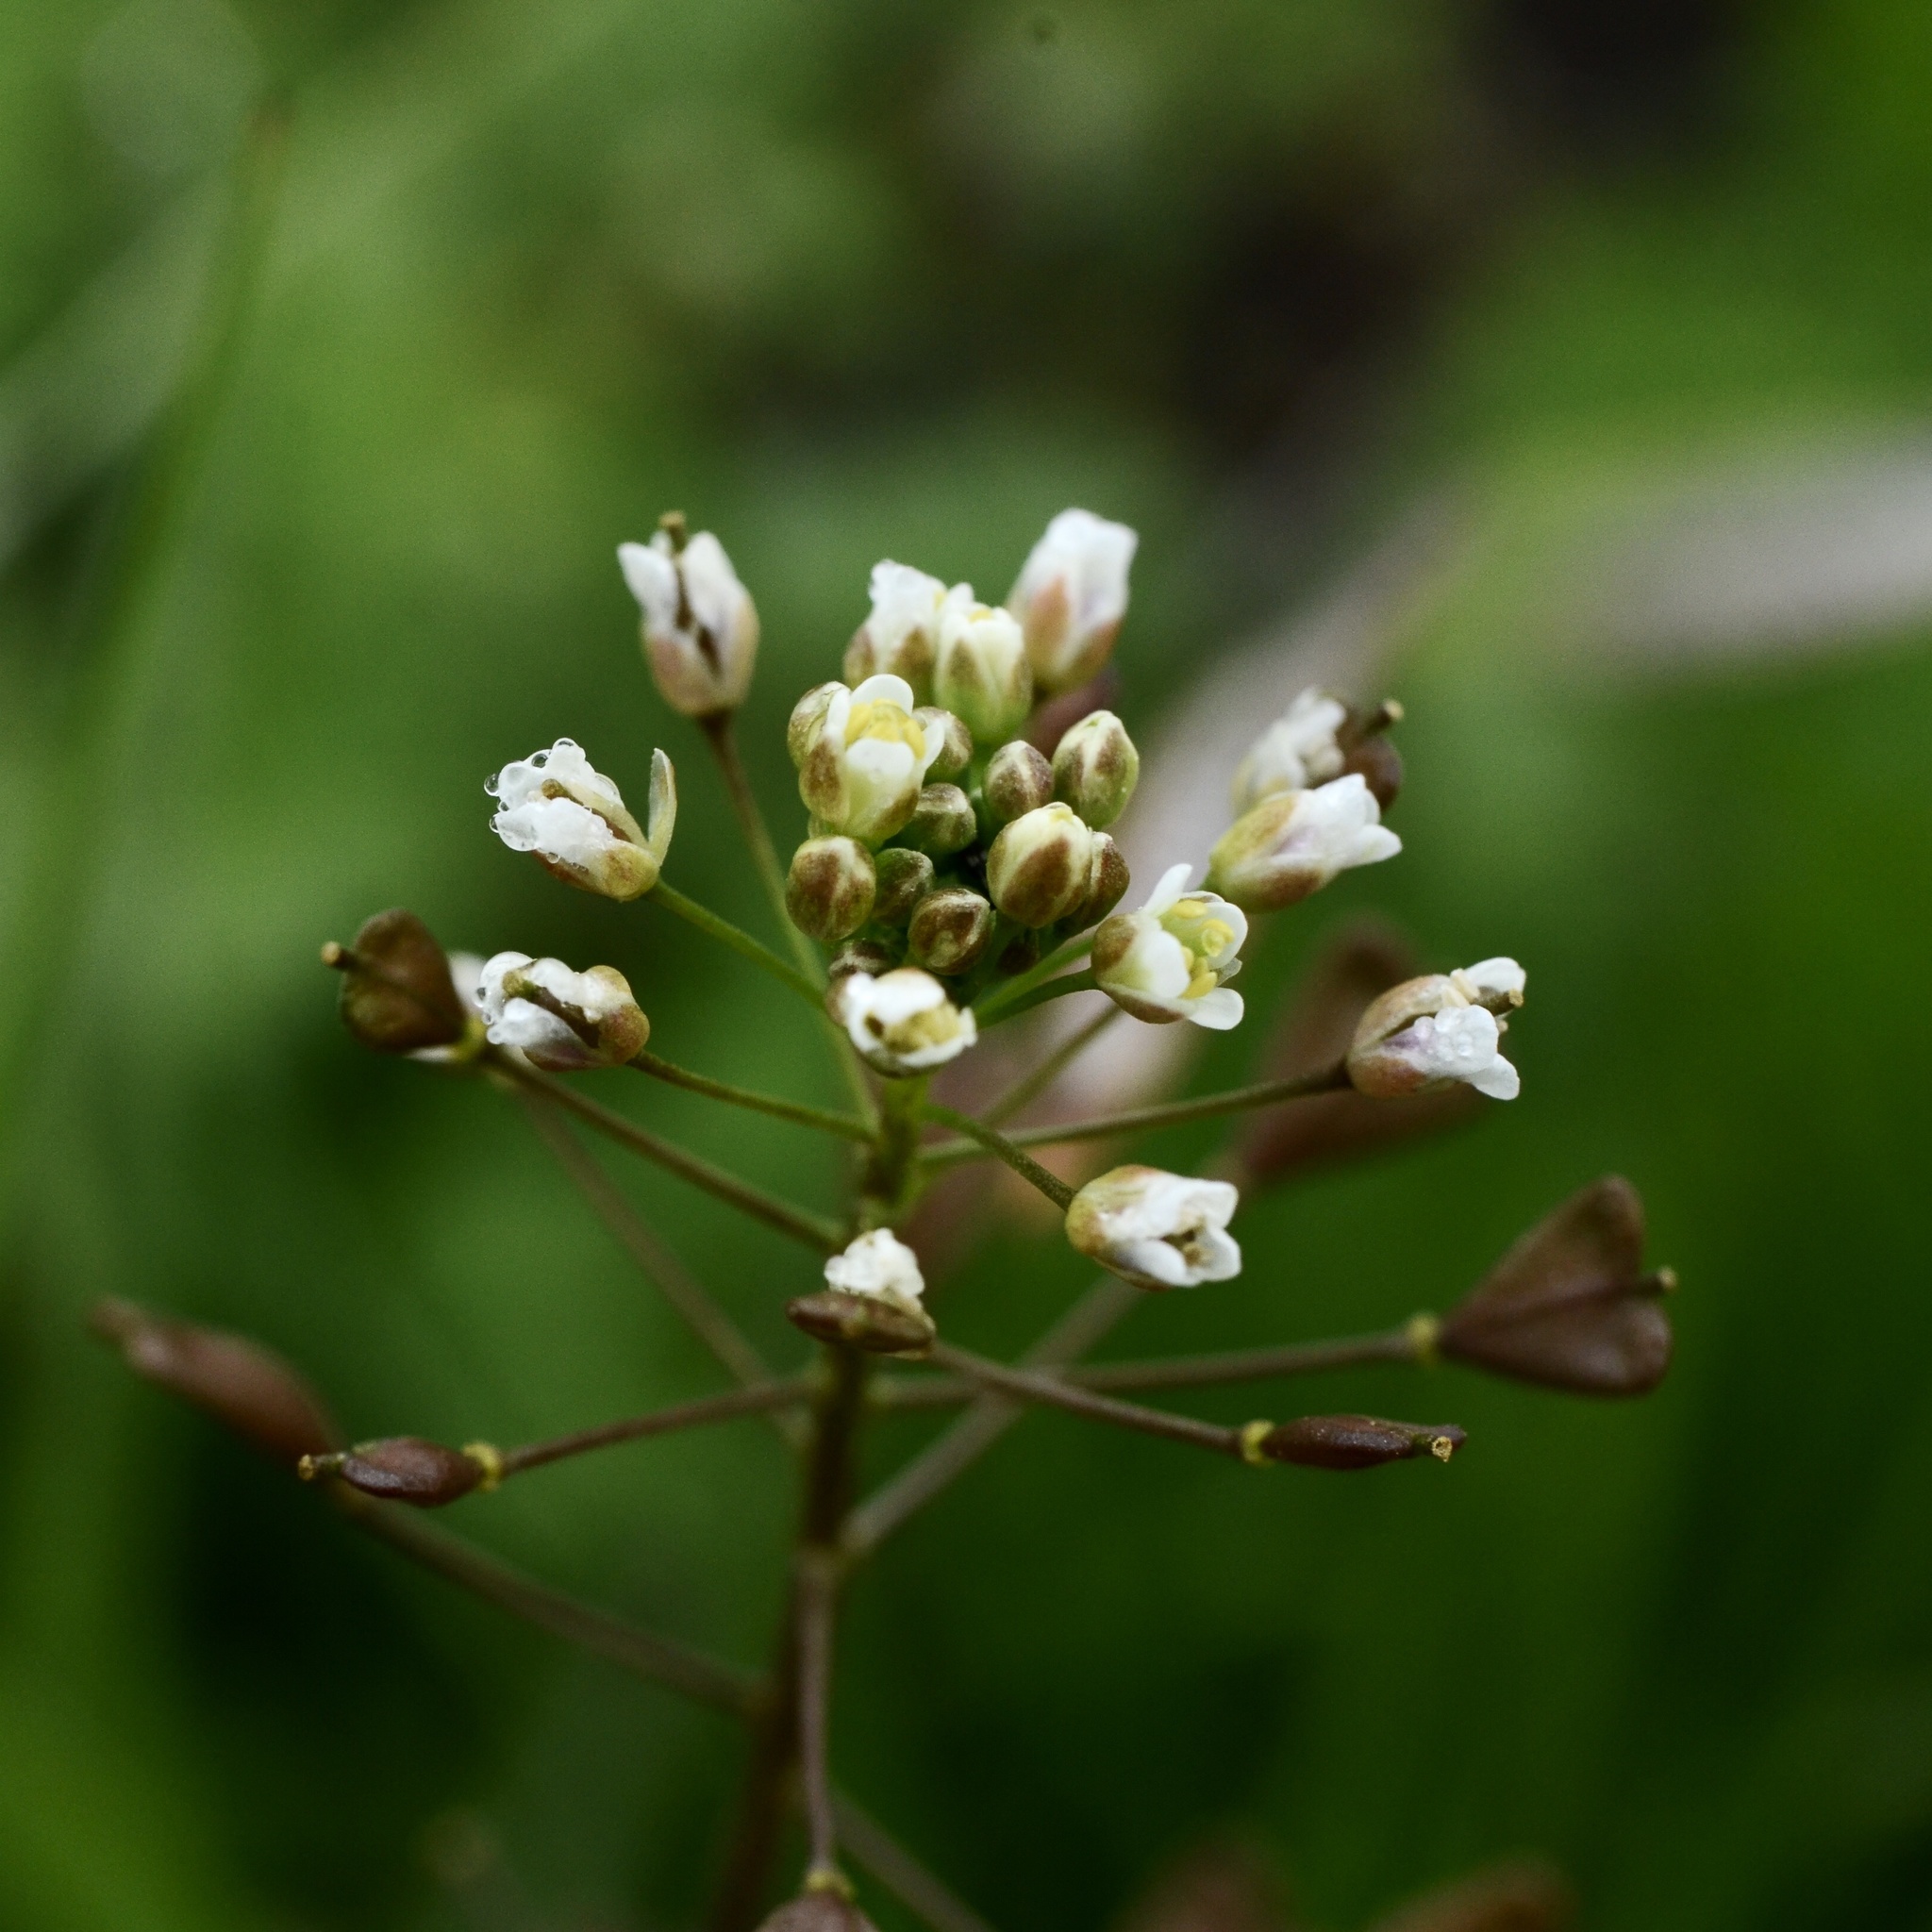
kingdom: Plantae
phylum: Tracheophyta
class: Magnoliopsida
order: Brassicales
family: Brassicaceae
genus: Capsella
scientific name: Capsella bursa-pastoris
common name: Shepherd's purse
